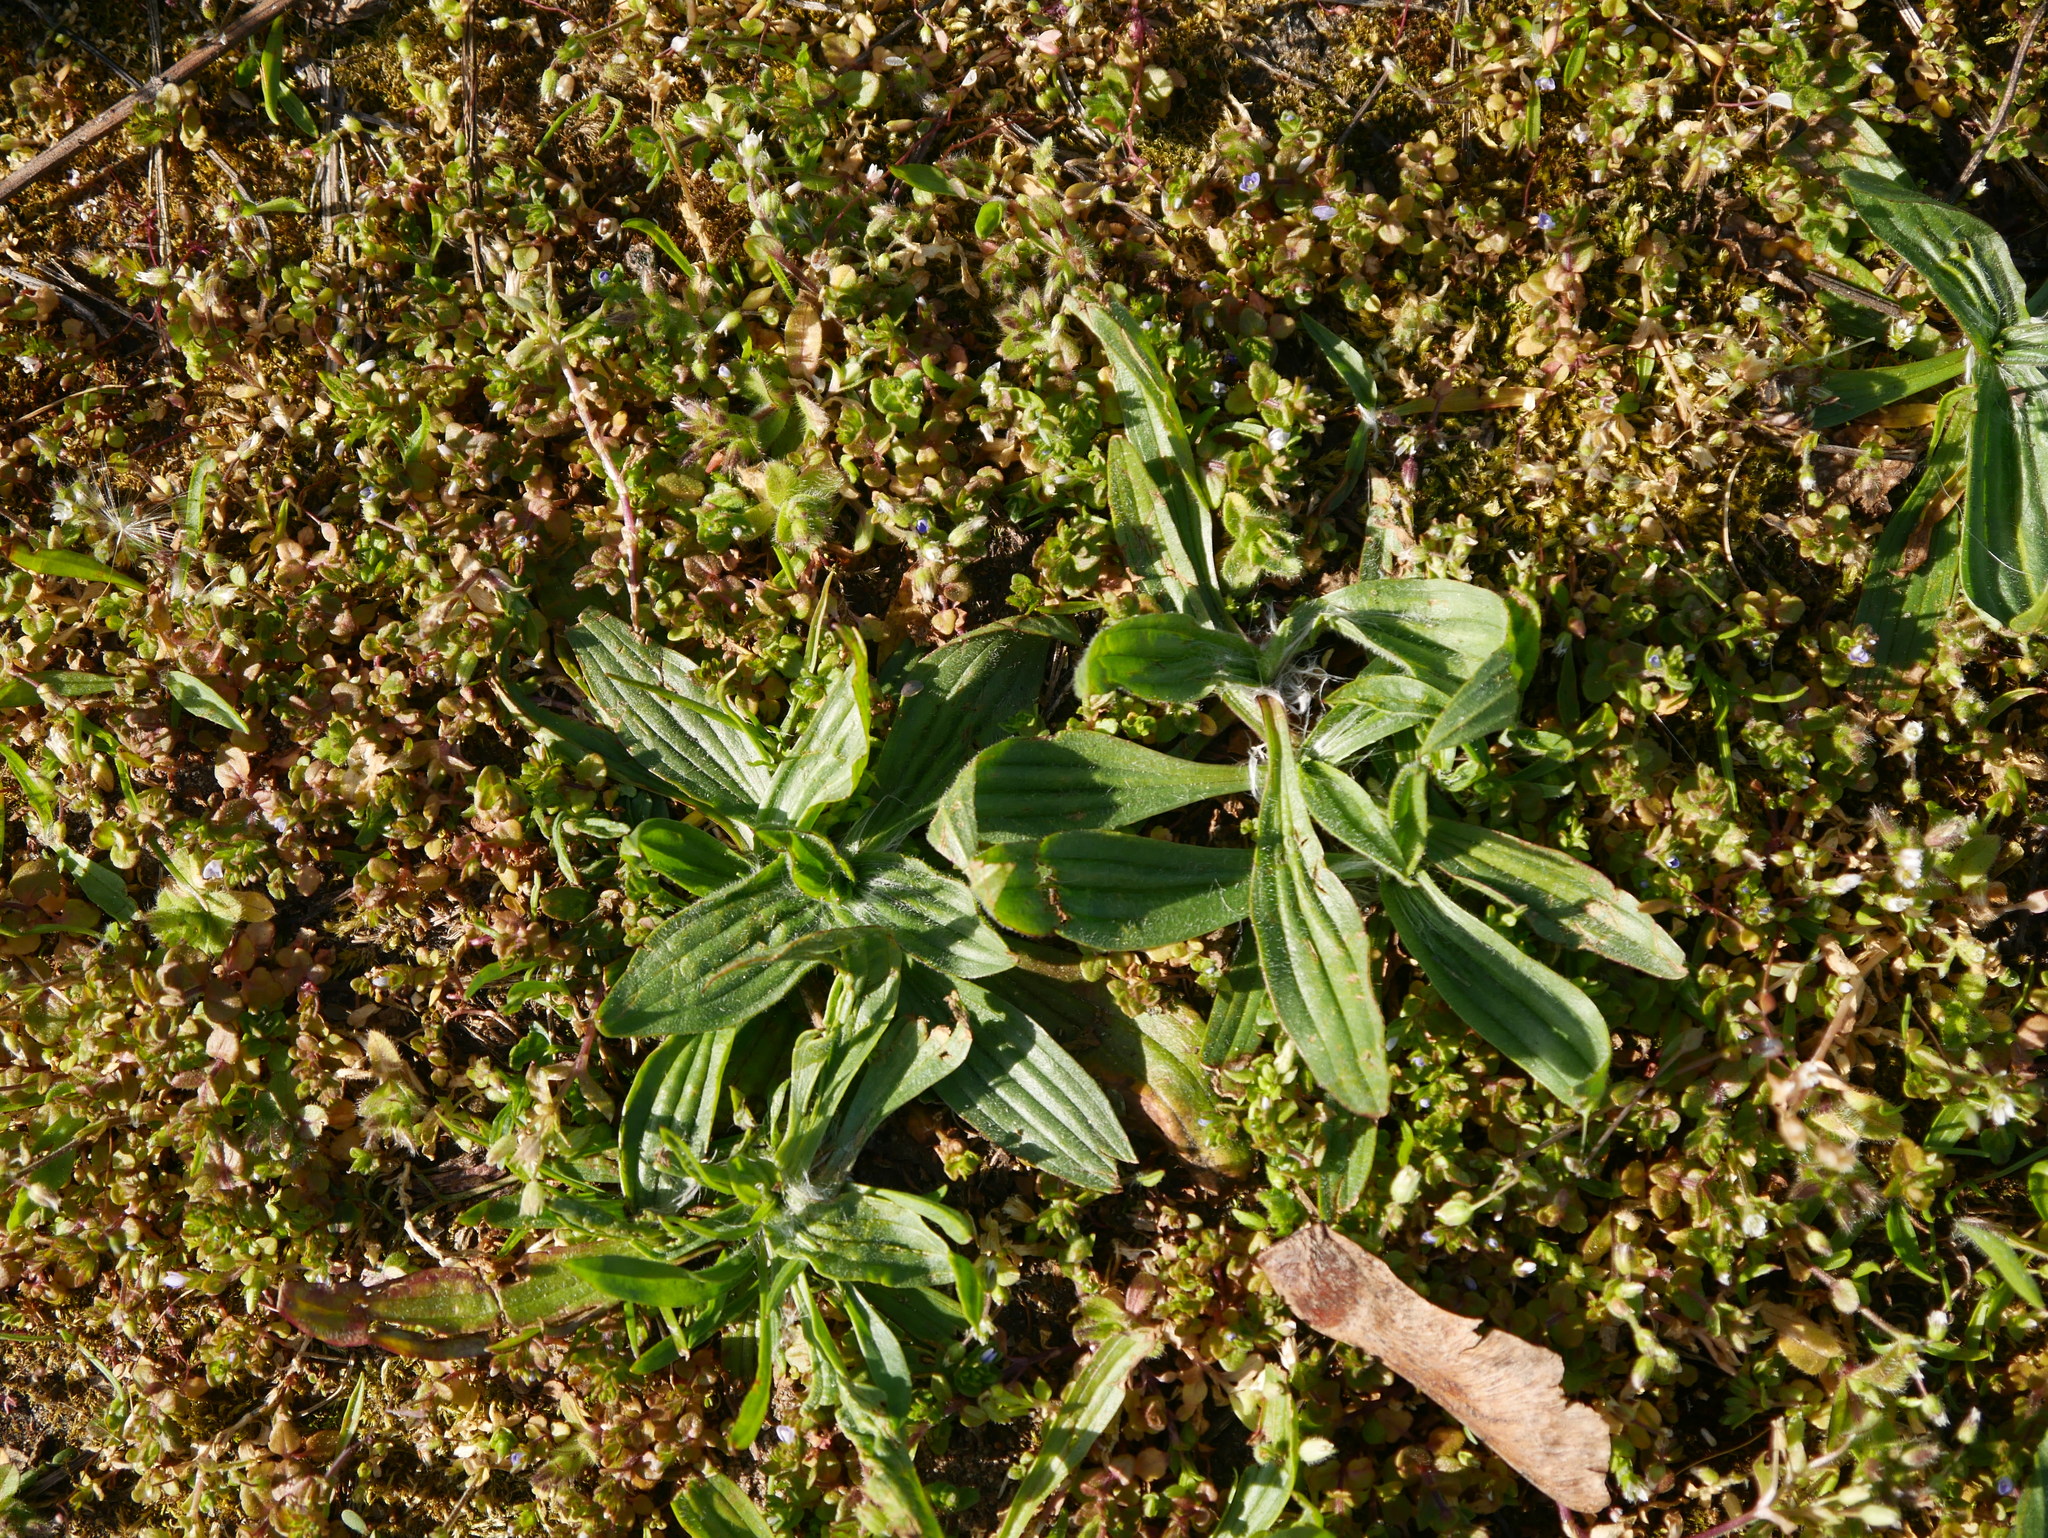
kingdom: Plantae
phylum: Tracheophyta
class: Magnoliopsida
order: Lamiales
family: Plantaginaceae
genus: Plantago
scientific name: Plantago lanceolata
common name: Ribwort plantain
